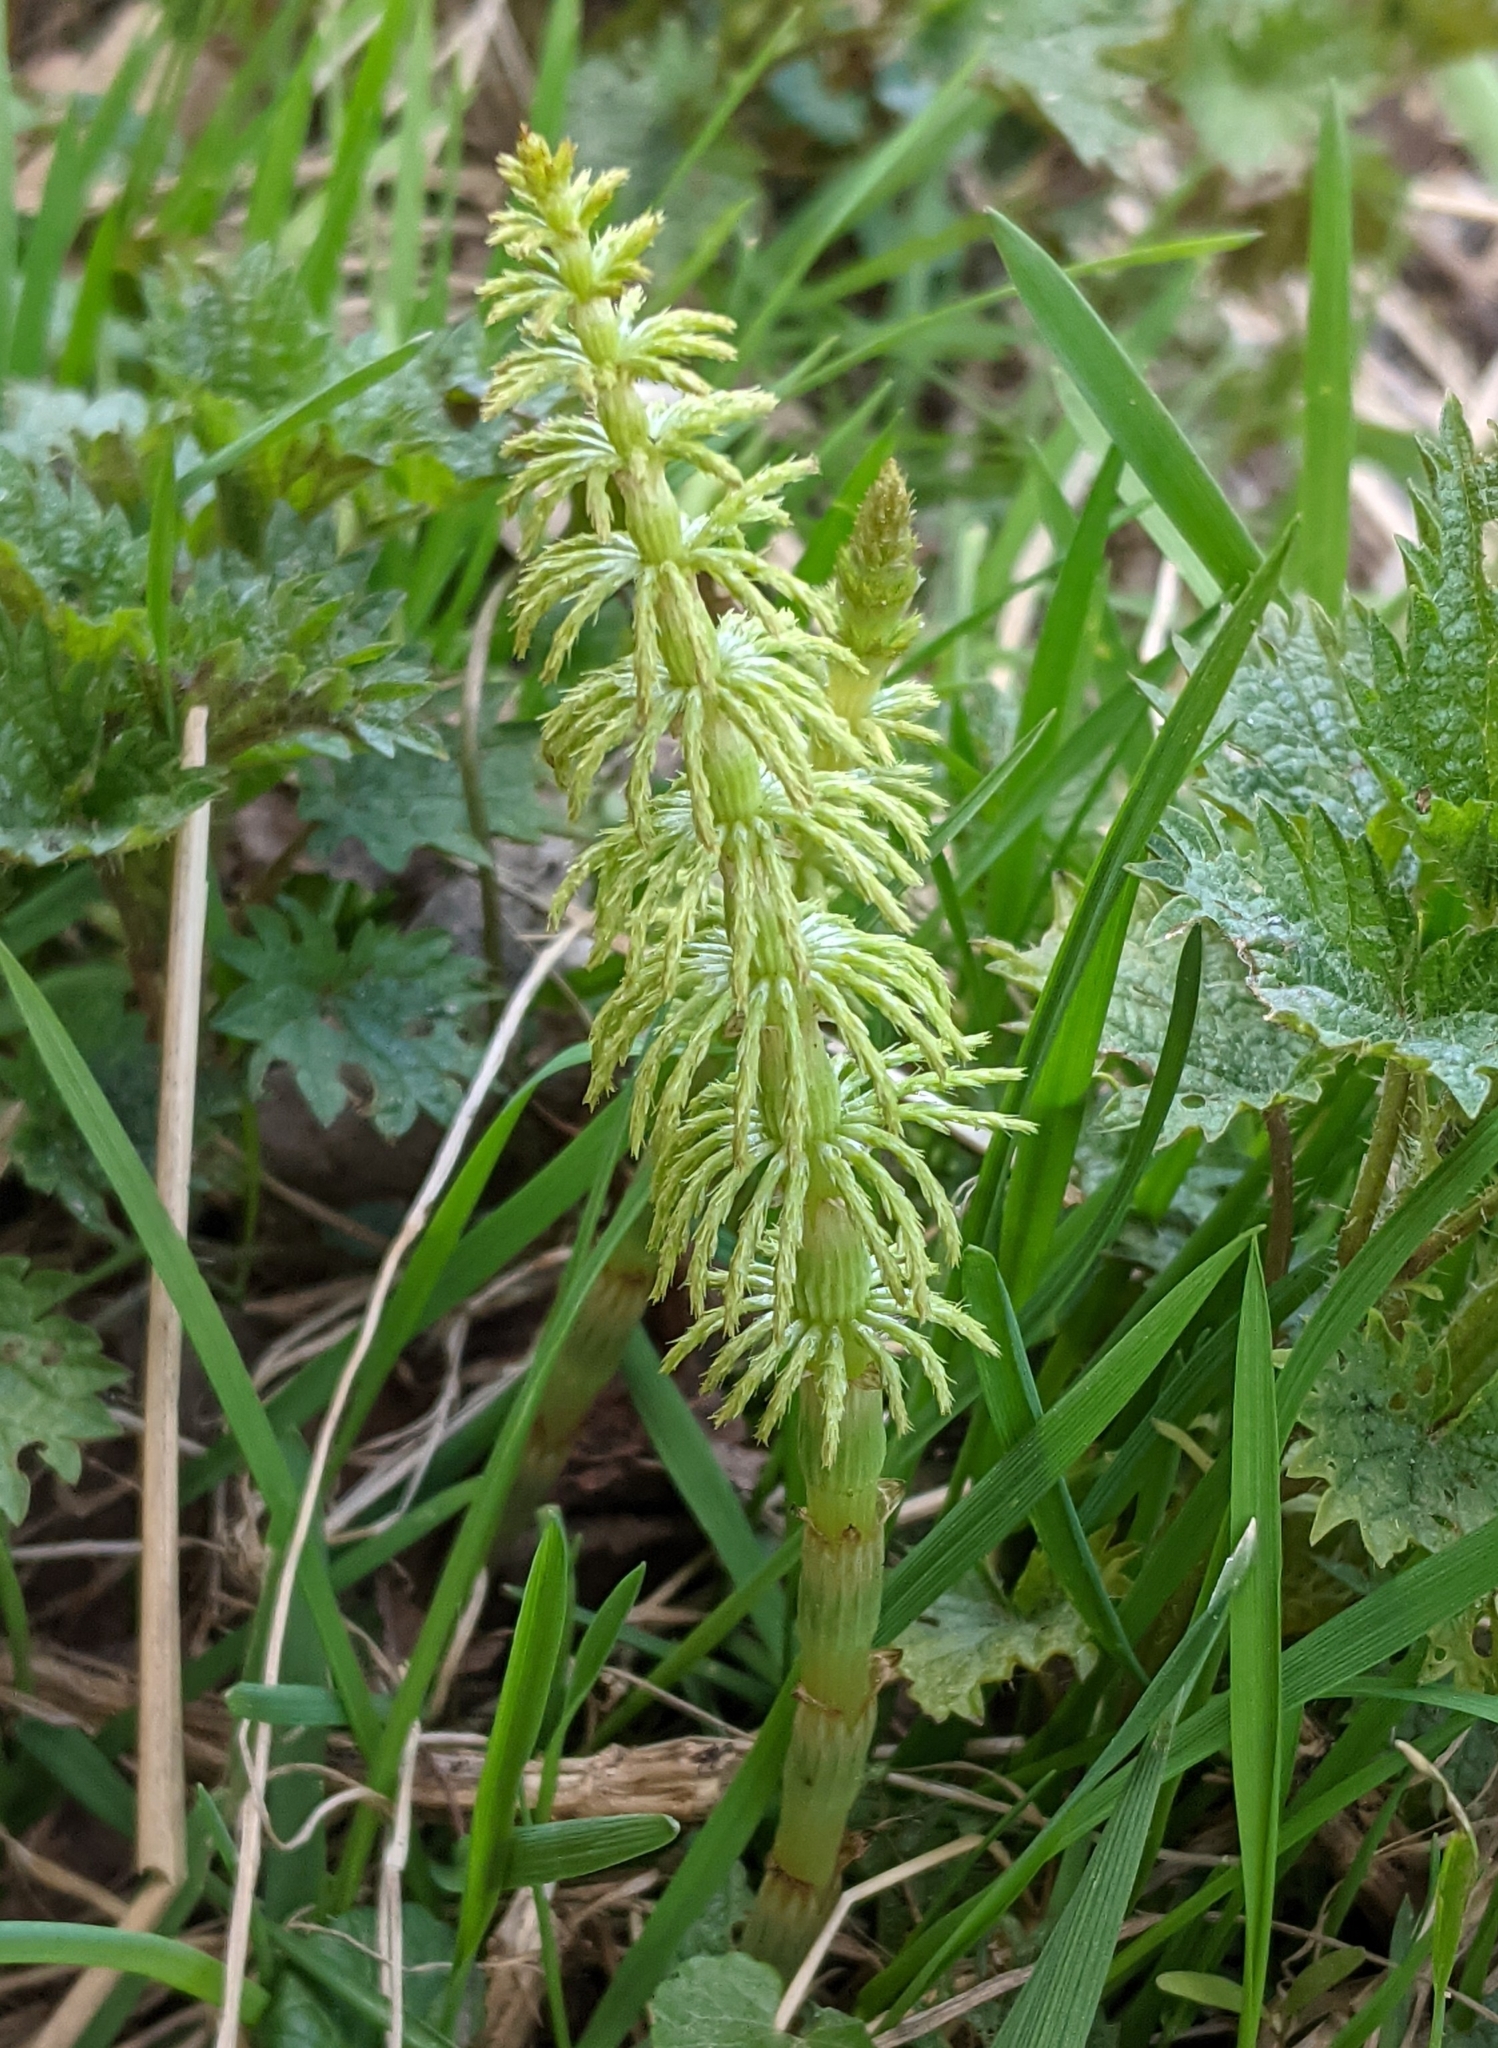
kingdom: Plantae
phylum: Tracheophyta
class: Polypodiopsida
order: Equisetales
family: Equisetaceae
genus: Equisetum
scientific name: Equisetum sylvaticum
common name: Wood horsetail
